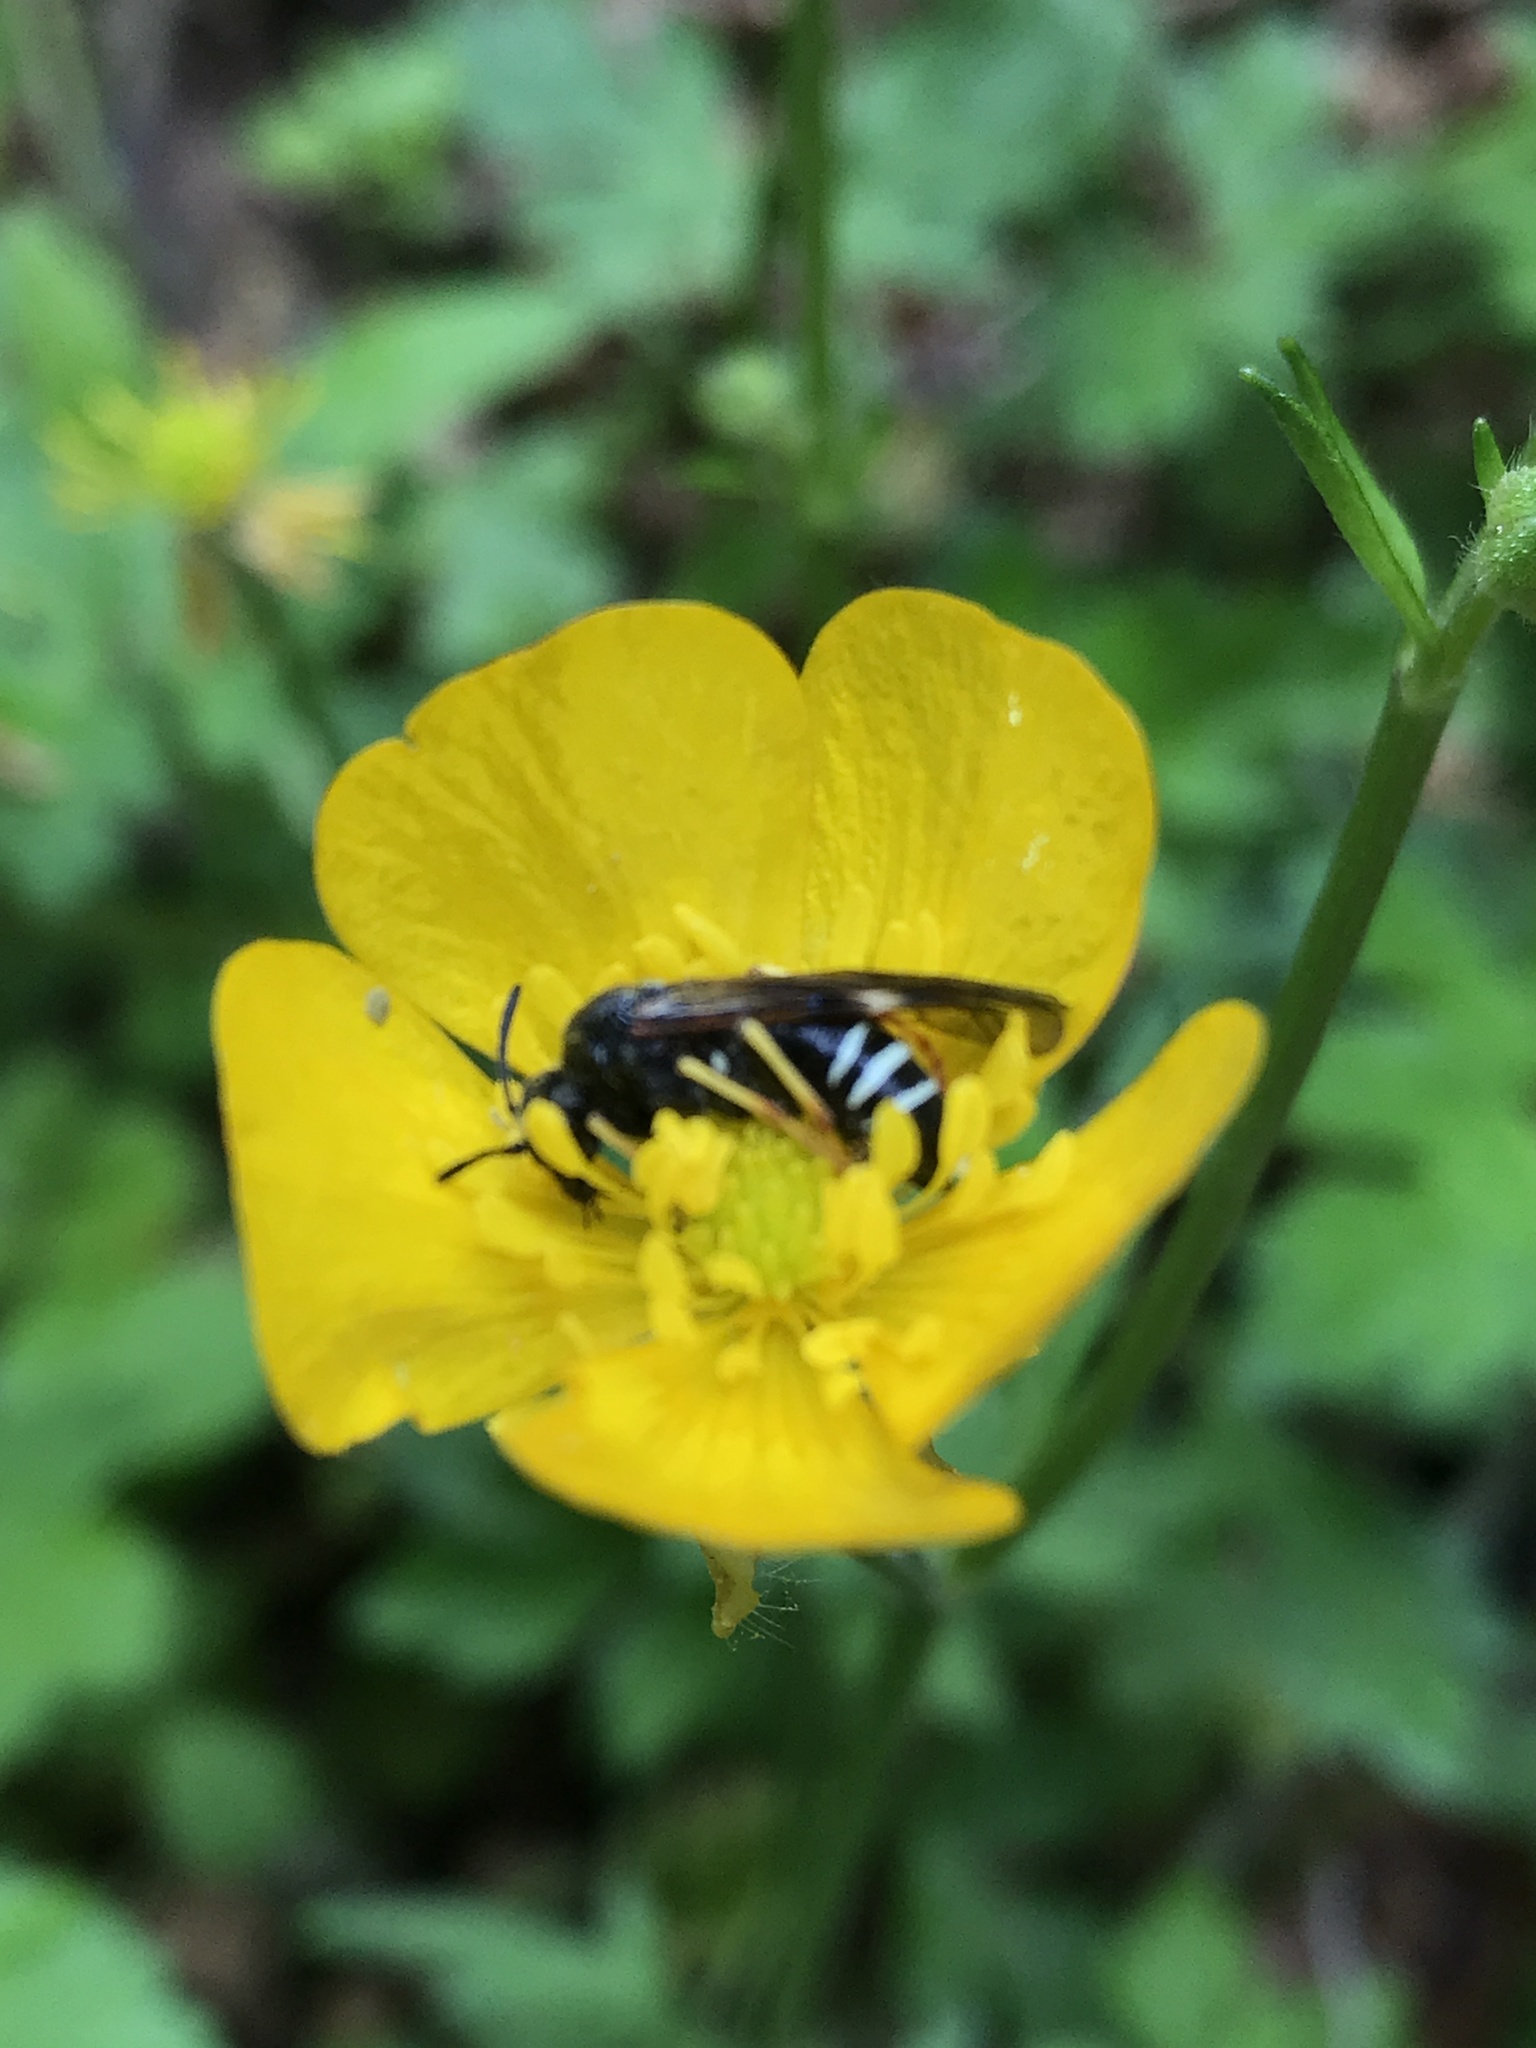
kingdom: Animalia
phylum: Arthropoda
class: Insecta
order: Hymenoptera
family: Tenthredinidae
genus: Tenthredo
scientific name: Tenthredo koehleri
